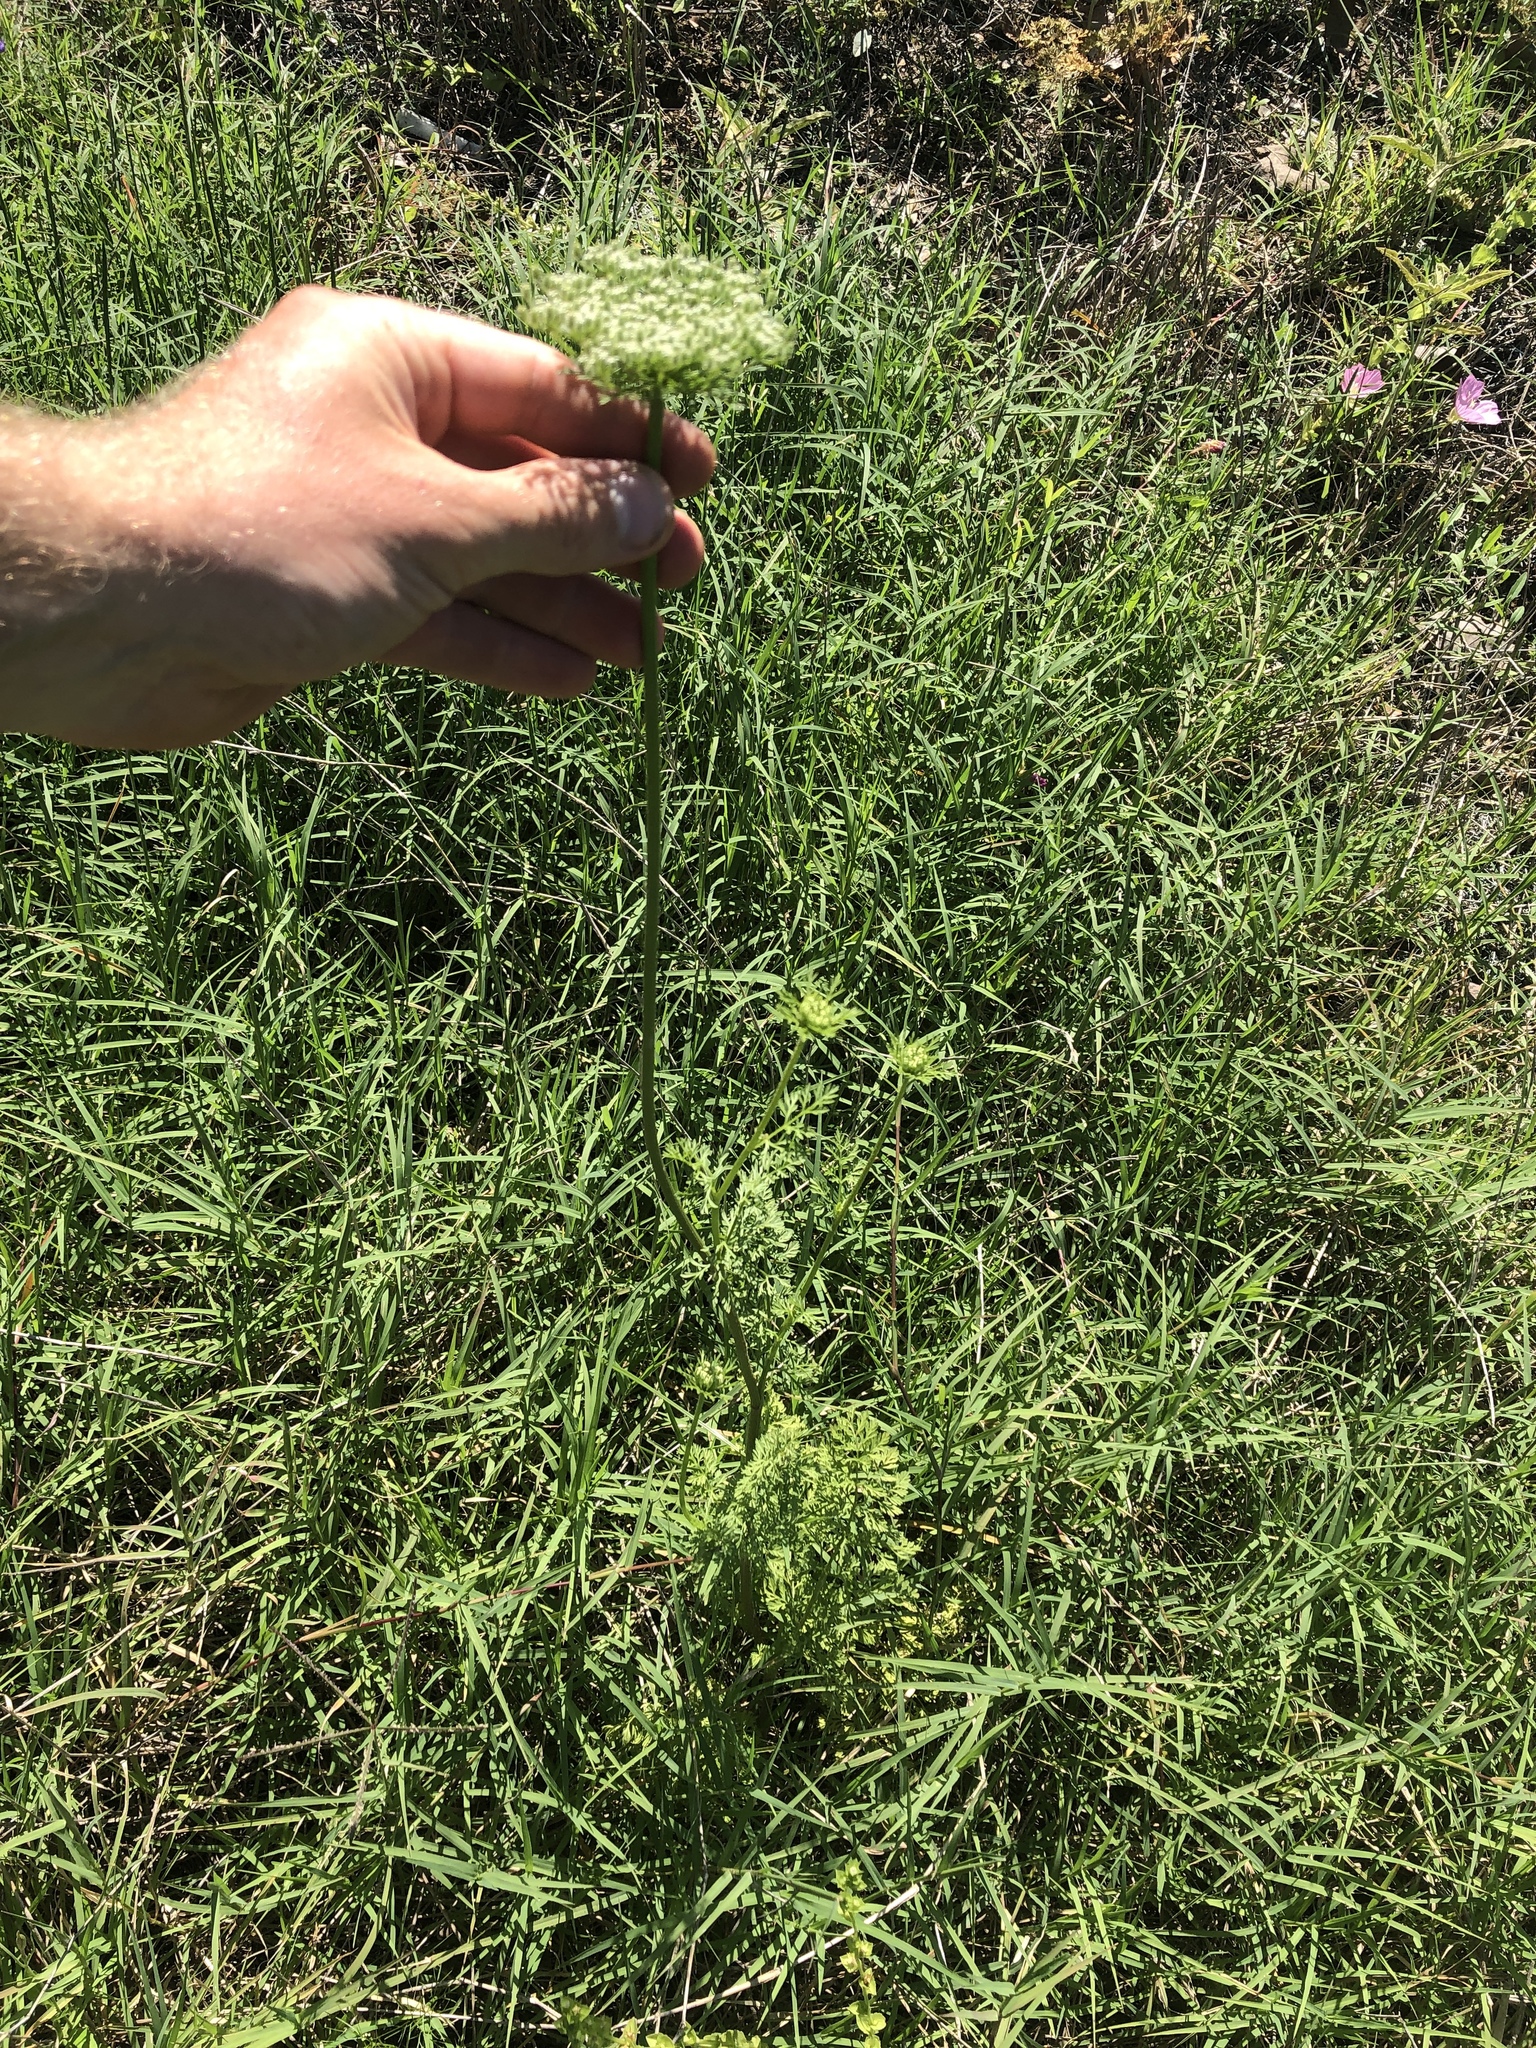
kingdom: Plantae
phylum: Tracheophyta
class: Magnoliopsida
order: Apiales
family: Apiaceae
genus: Daucus
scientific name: Daucus pusillus
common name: Southwest wild carrot
